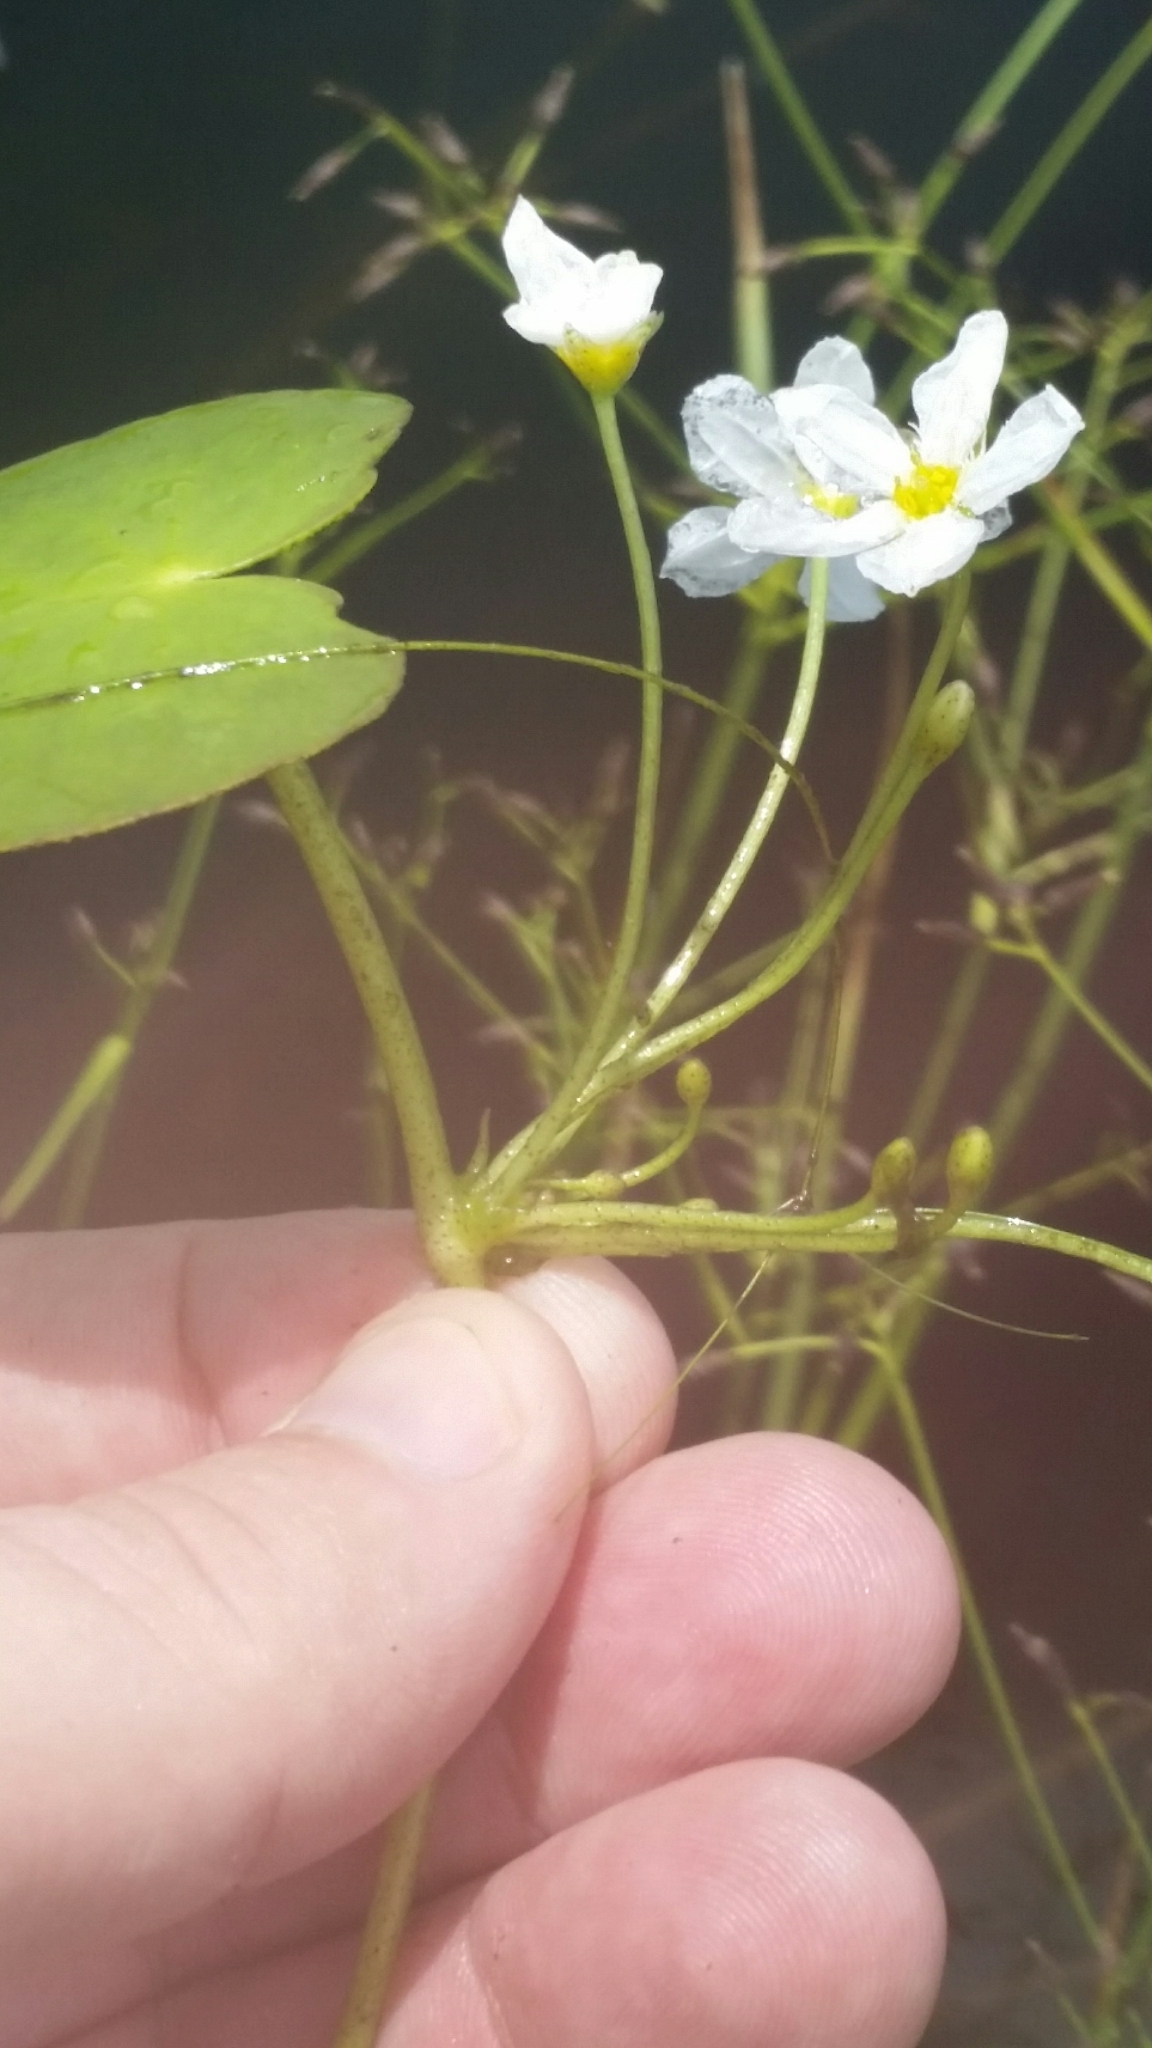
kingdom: Plantae
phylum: Tracheophyta
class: Magnoliopsida
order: Asterales
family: Menyanthaceae
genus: Nymphoides
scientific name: Nymphoides aquatica
